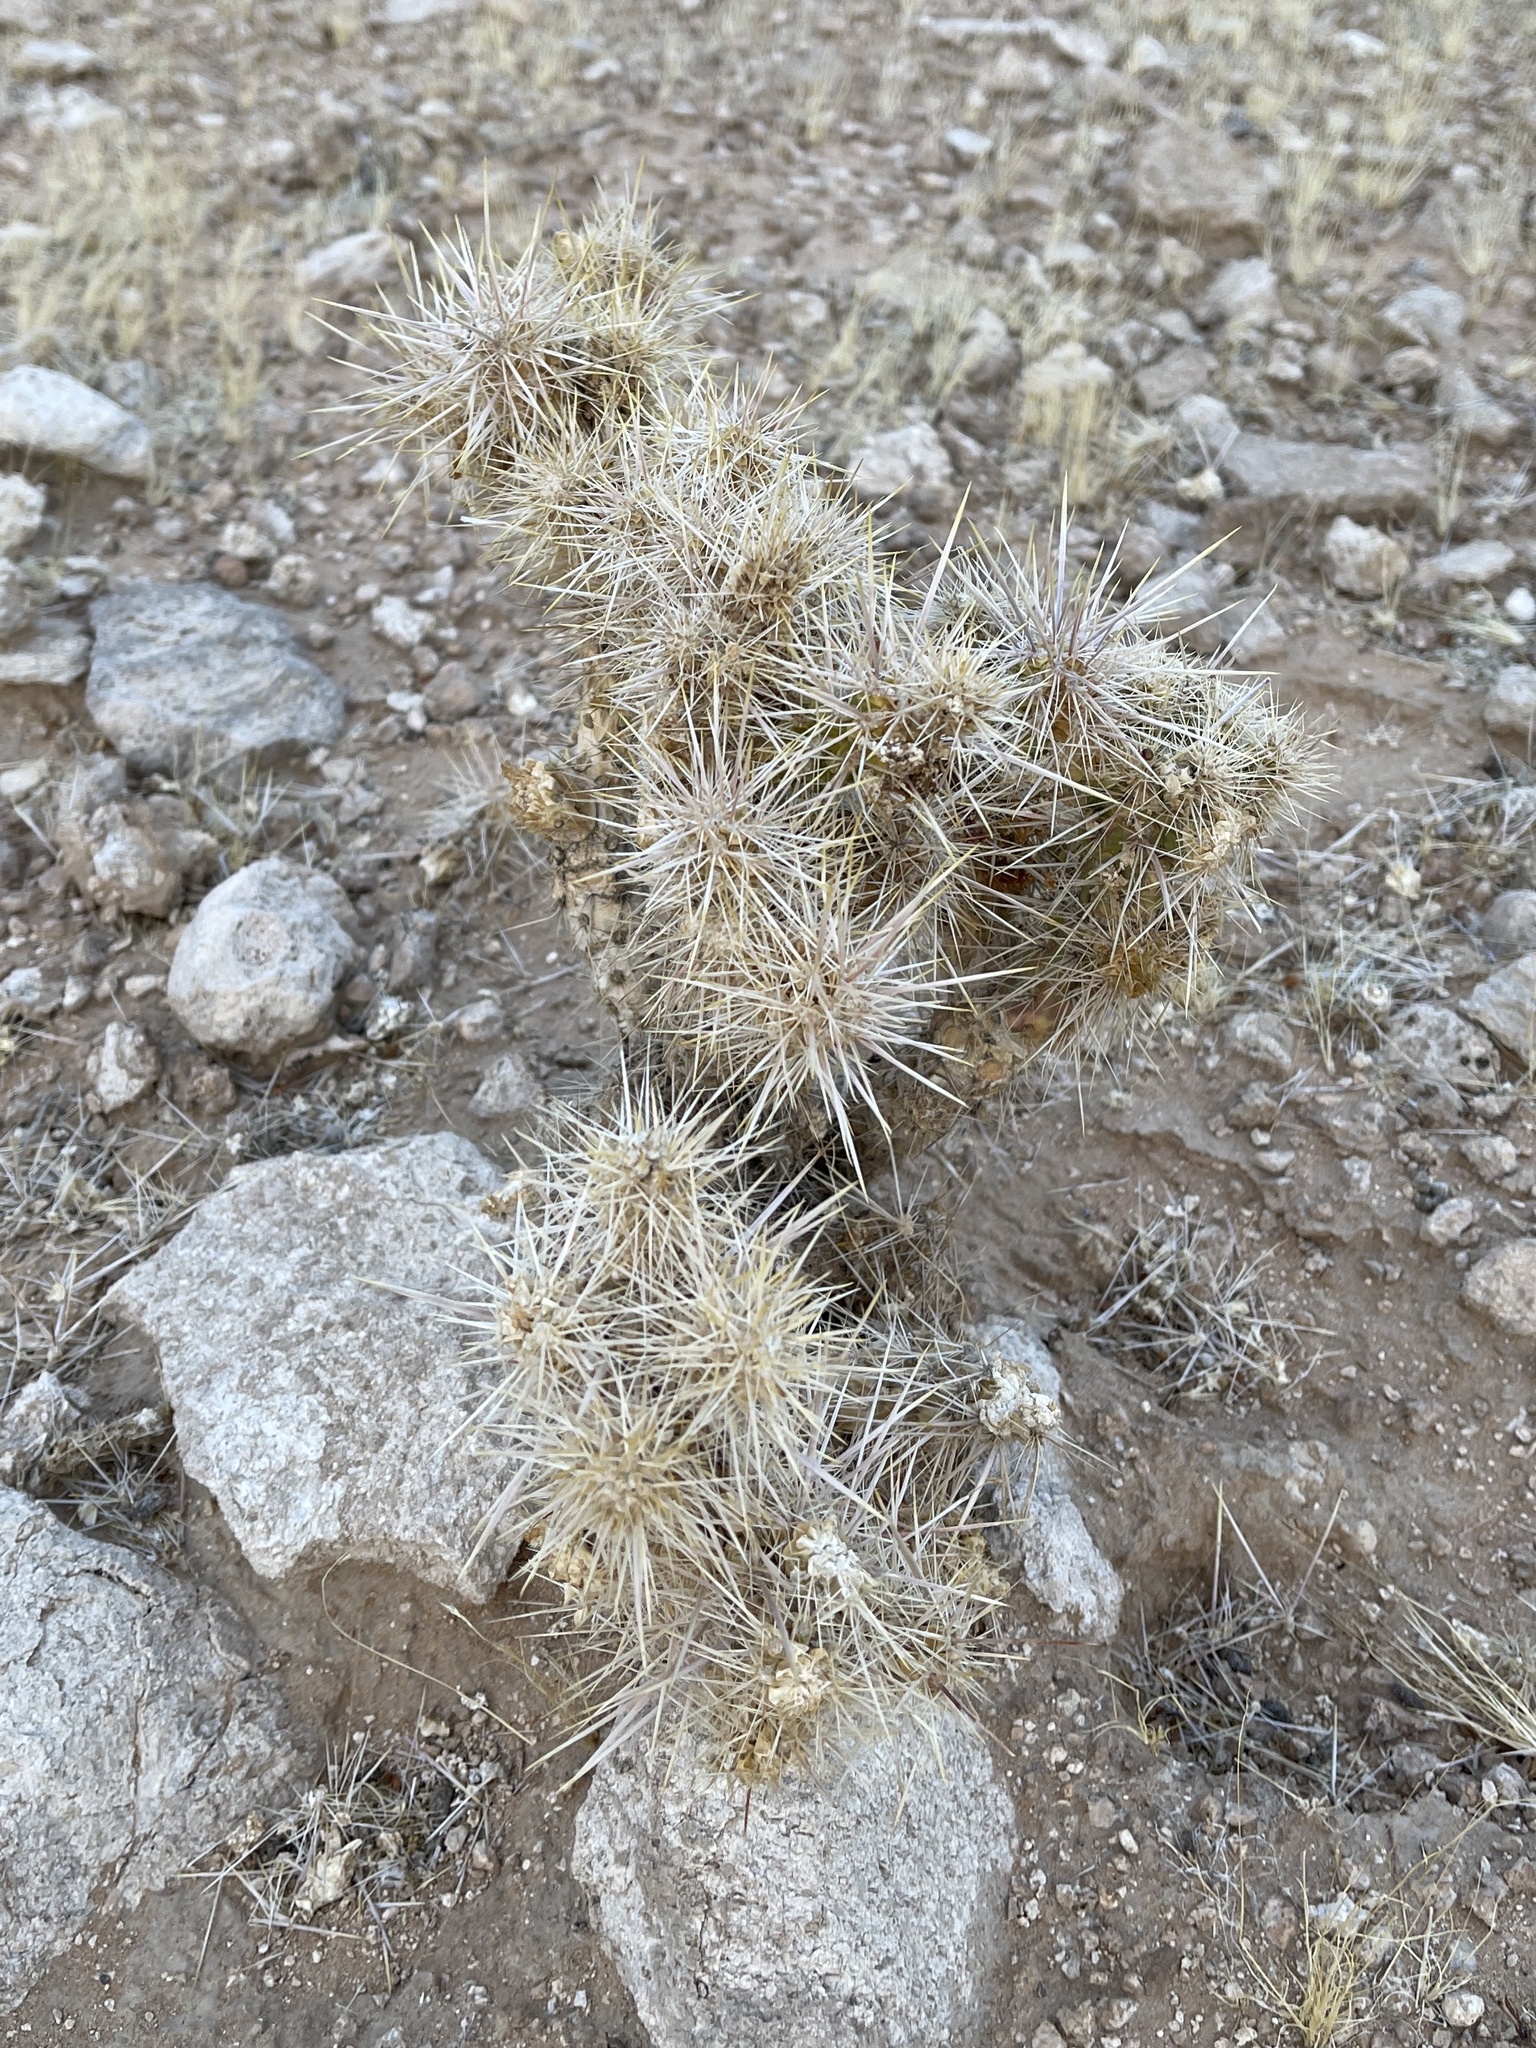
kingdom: Plantae
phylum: Tracheophyta
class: Magnoliopsida
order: Caryophyllales
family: Cactaceae
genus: Cylindropuntia
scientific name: Cylindropuntia echinocarpa
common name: Ground cholla
